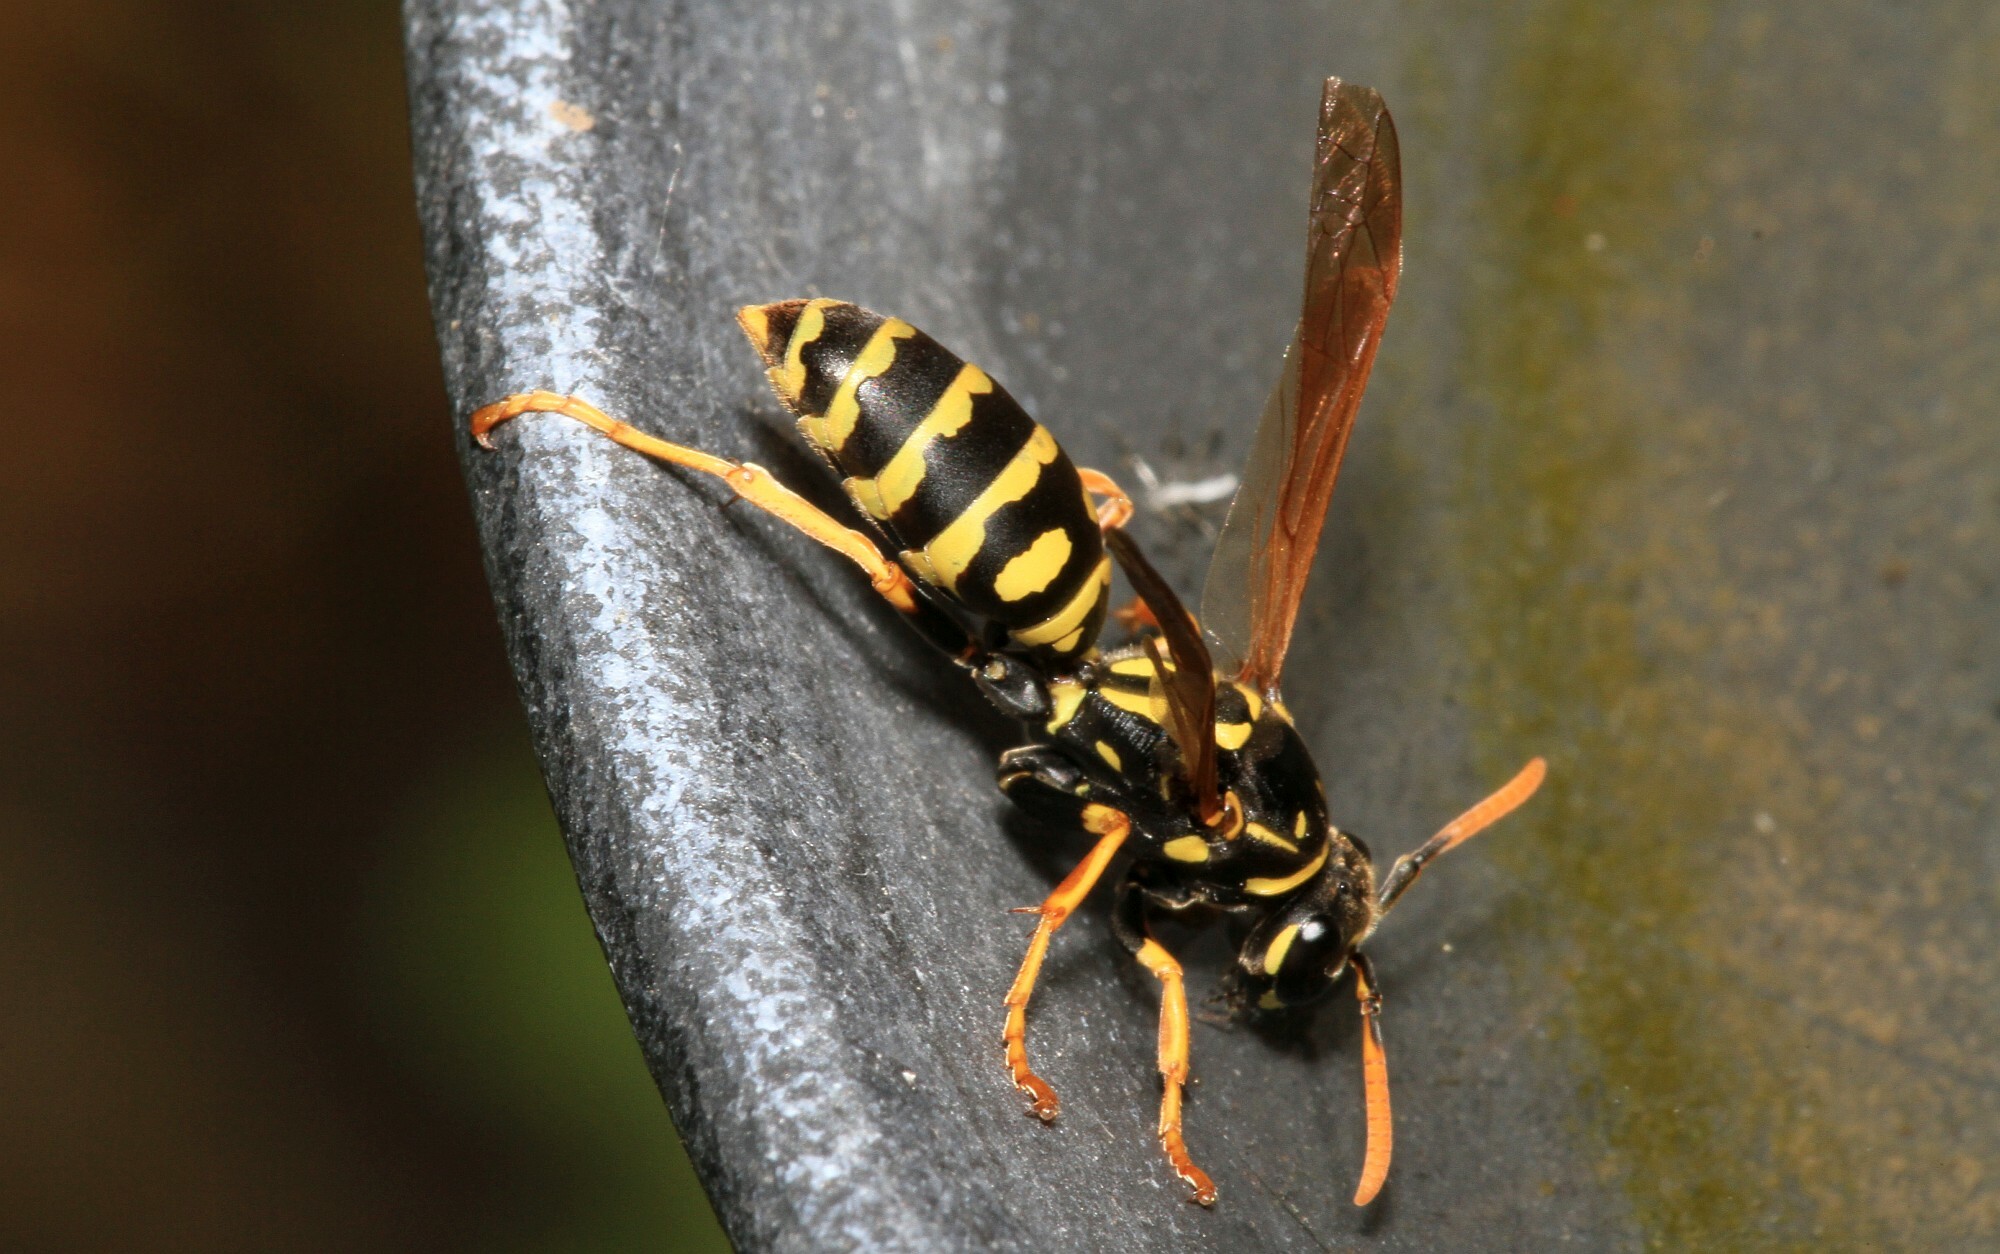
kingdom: Animalia
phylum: Arthropoda
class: Insecta
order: Hymenoptera
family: Eumenidae
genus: Polistes
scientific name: Polistes dominula
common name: Paper wasp
